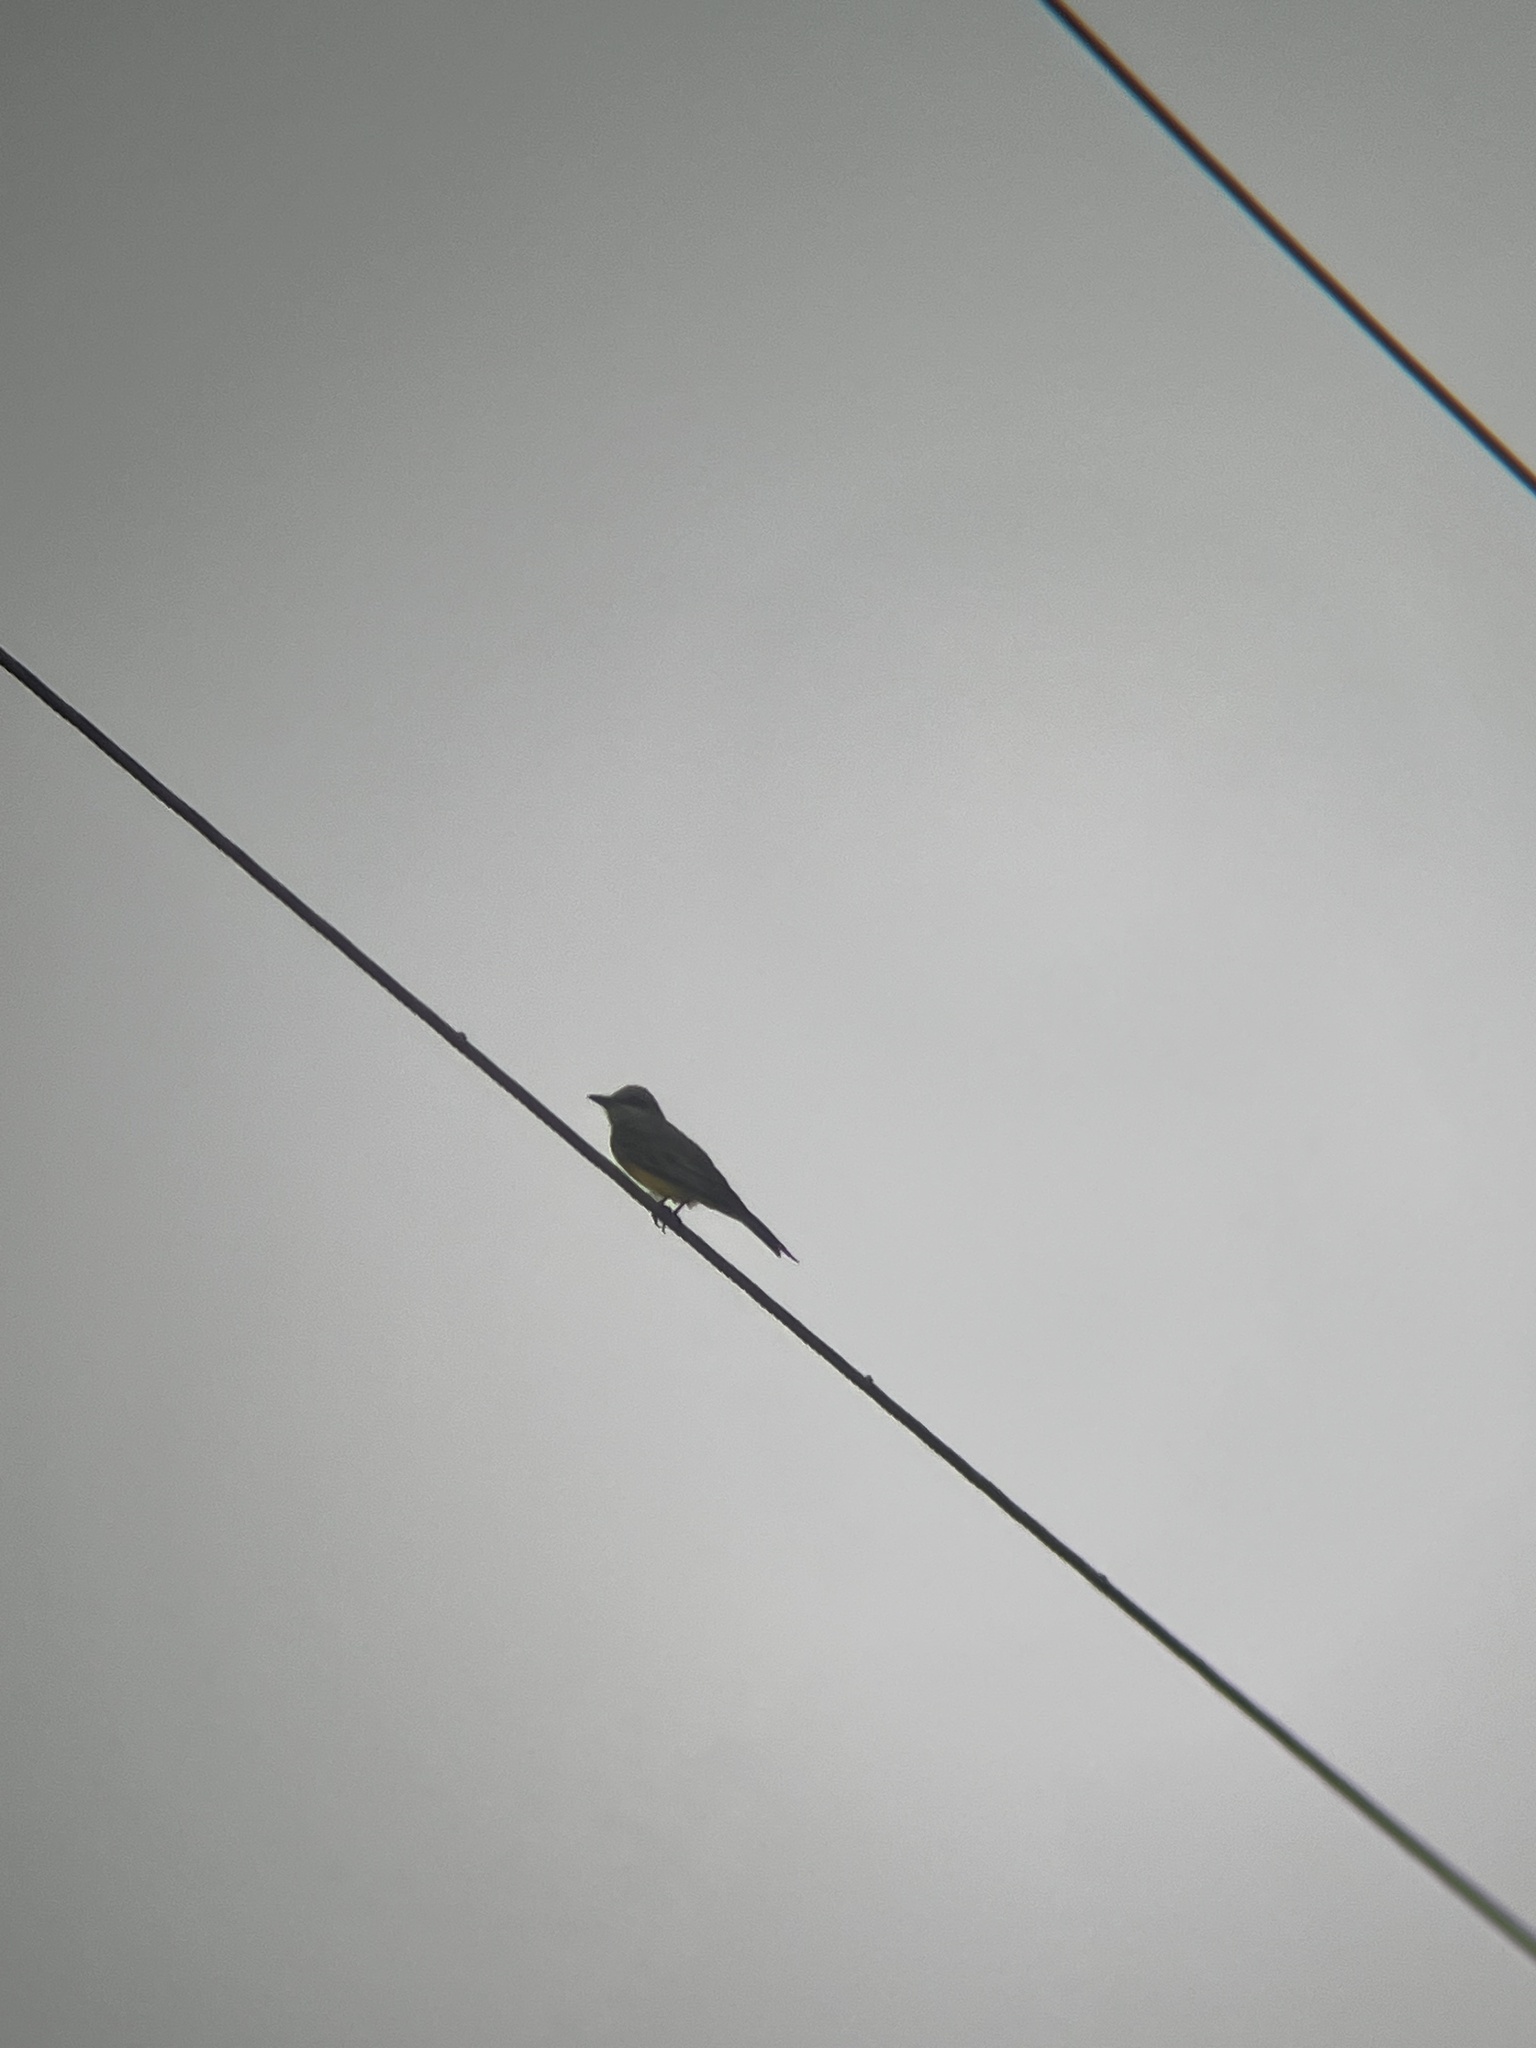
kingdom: Animalia
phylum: Chordata
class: Aves
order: Passeriformes
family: Tyrannidae
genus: Tyrannus
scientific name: Tyrannus melancholicus
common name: Tropical kingbird
